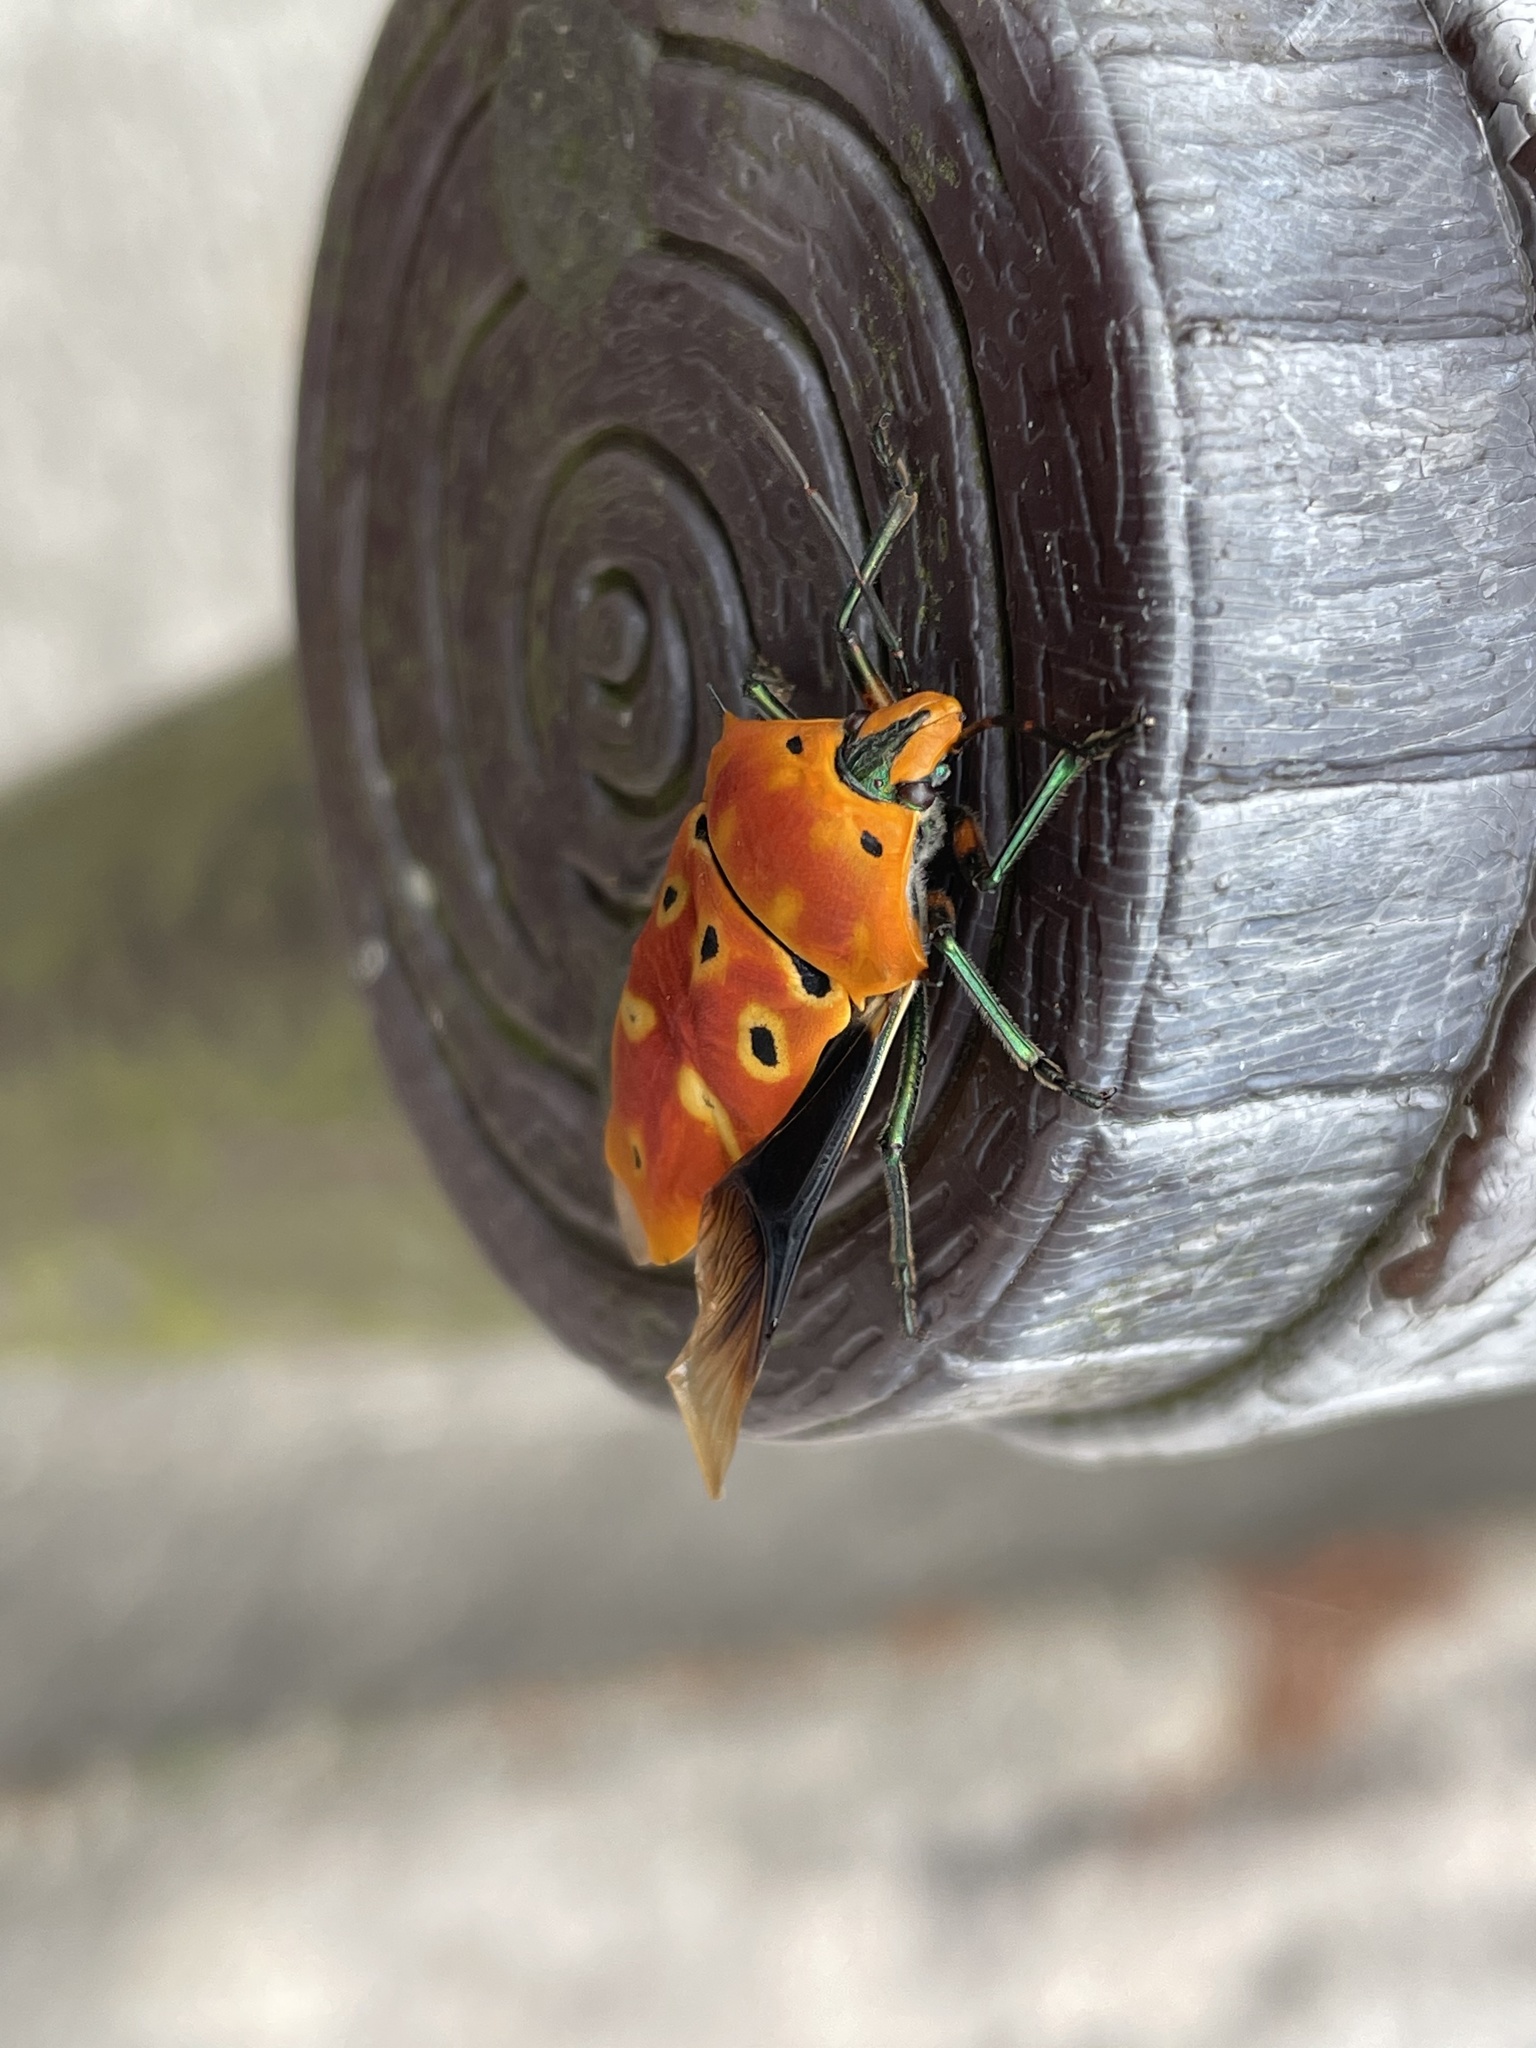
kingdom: Animalia
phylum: Arthropoda
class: Insecta
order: Hemiptera
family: Scutelleridae
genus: Cantao
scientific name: Cantao ocellatus
